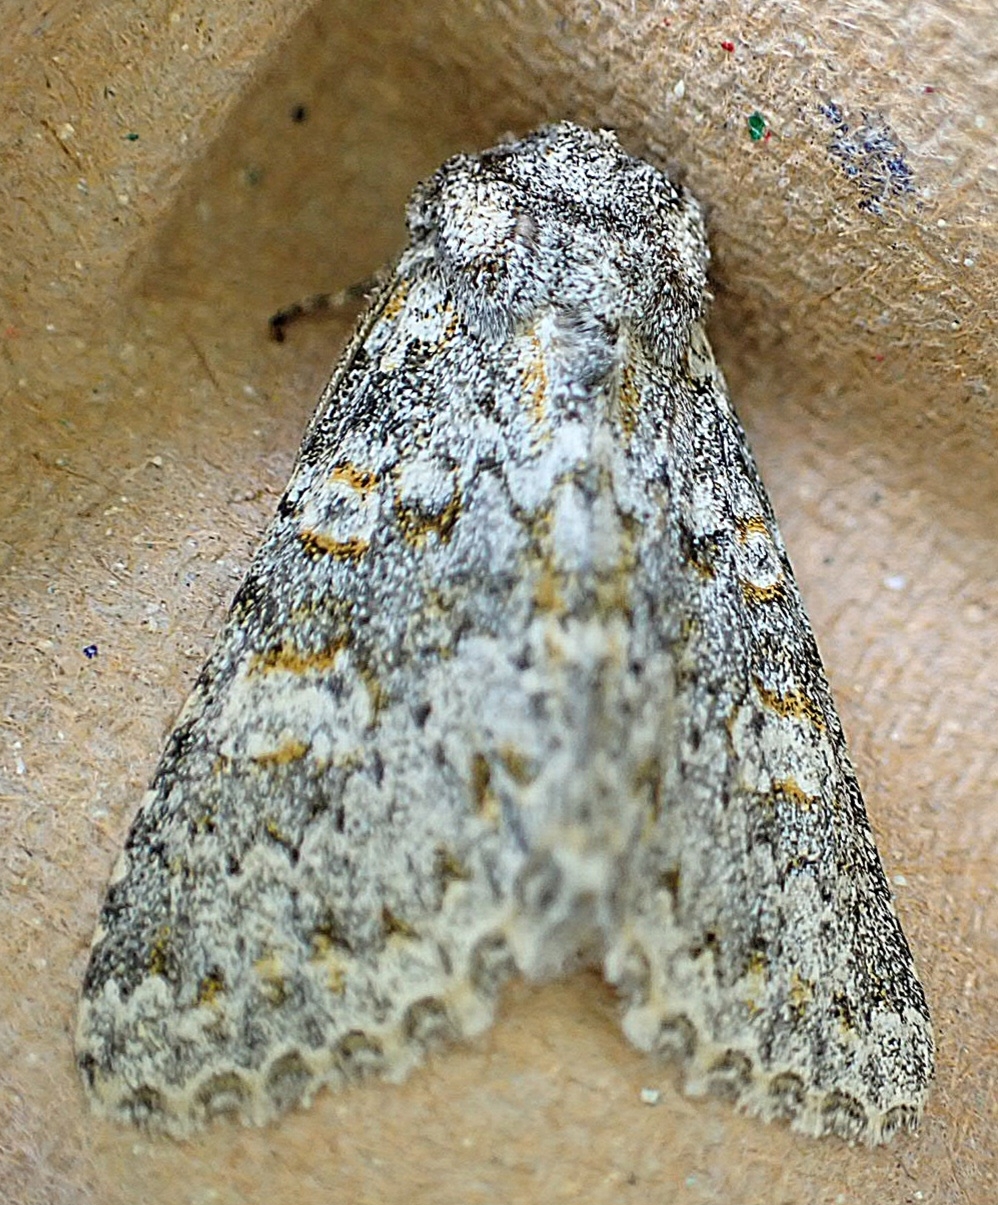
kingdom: Animalia
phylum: Arthropoda
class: Insecta
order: Lepidoptera
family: Noctuidae
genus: Polymixis
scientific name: Polymixis flavicincta
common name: Large ranunculus
